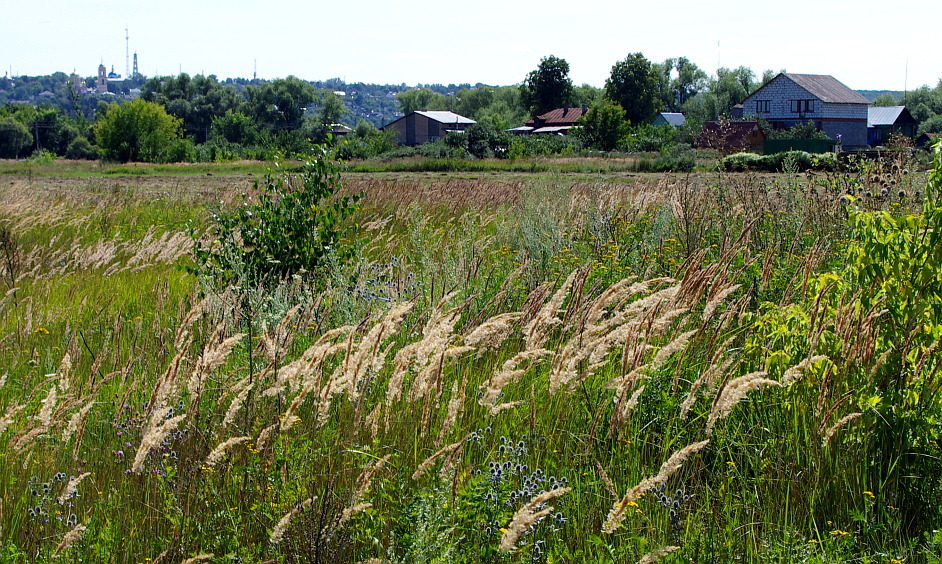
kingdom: Plantae
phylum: Tracheophyta
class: Liliopsida
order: Poales
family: Poaceae
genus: Calamagrostis
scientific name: Calamagrostis epigejos
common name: Wood small-reed
